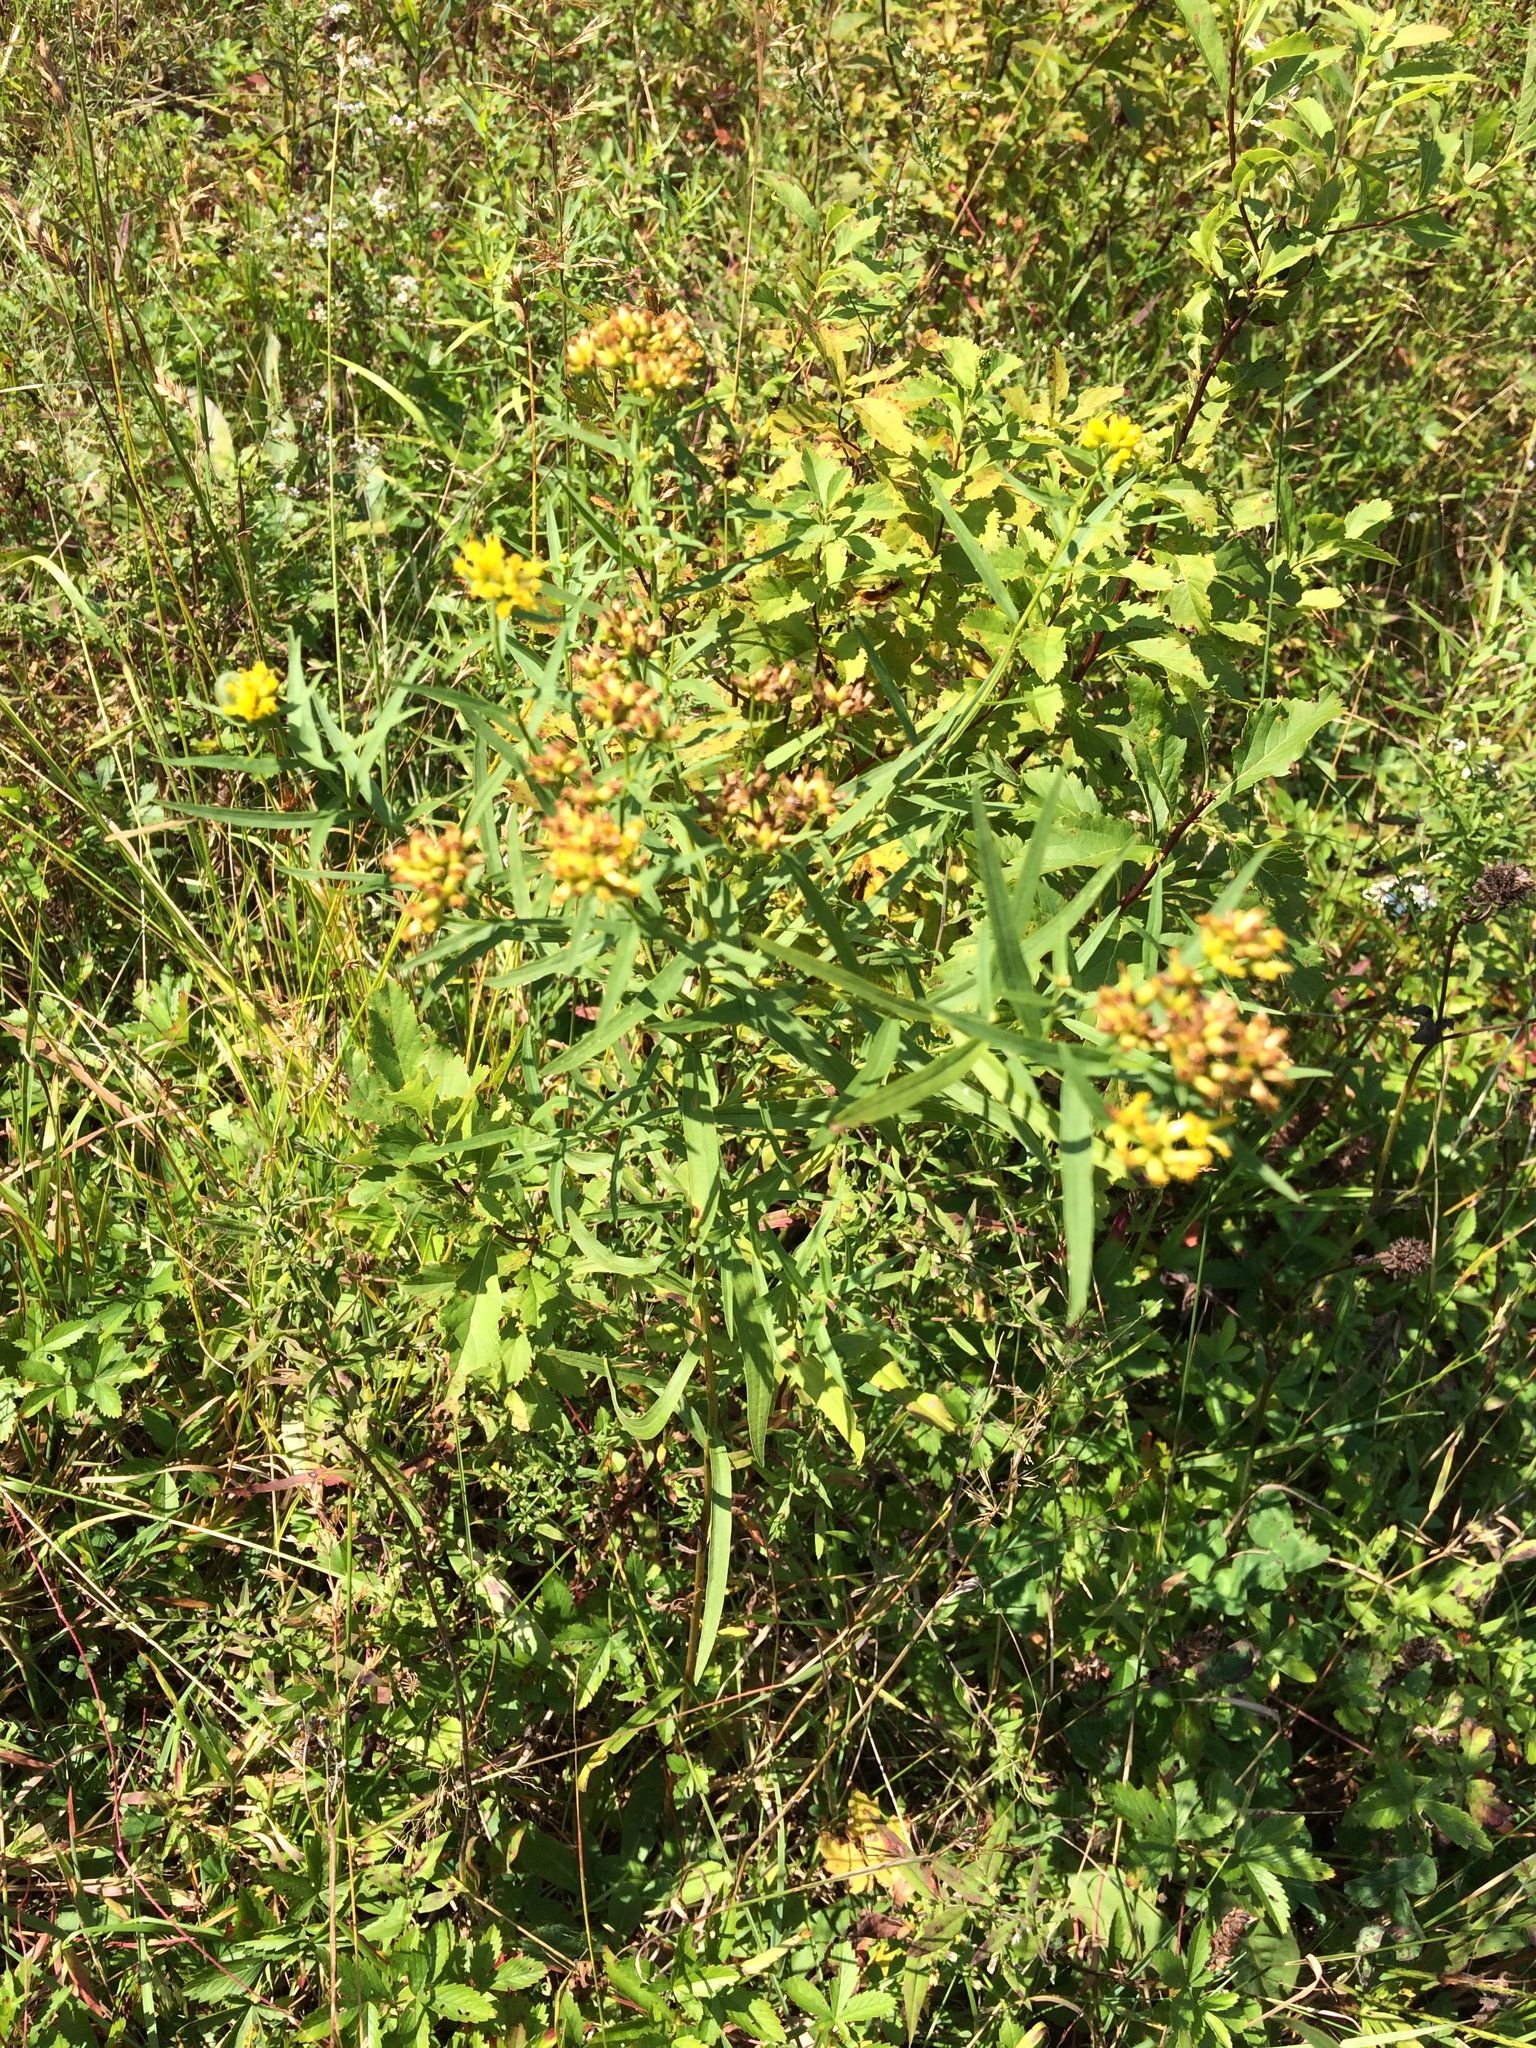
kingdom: Plantae
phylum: Tracheophyta
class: Magnoliopsida
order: Asterales
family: Asteraceae
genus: Euthamia
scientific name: Euthamia graminifolia
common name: Common goldentop
